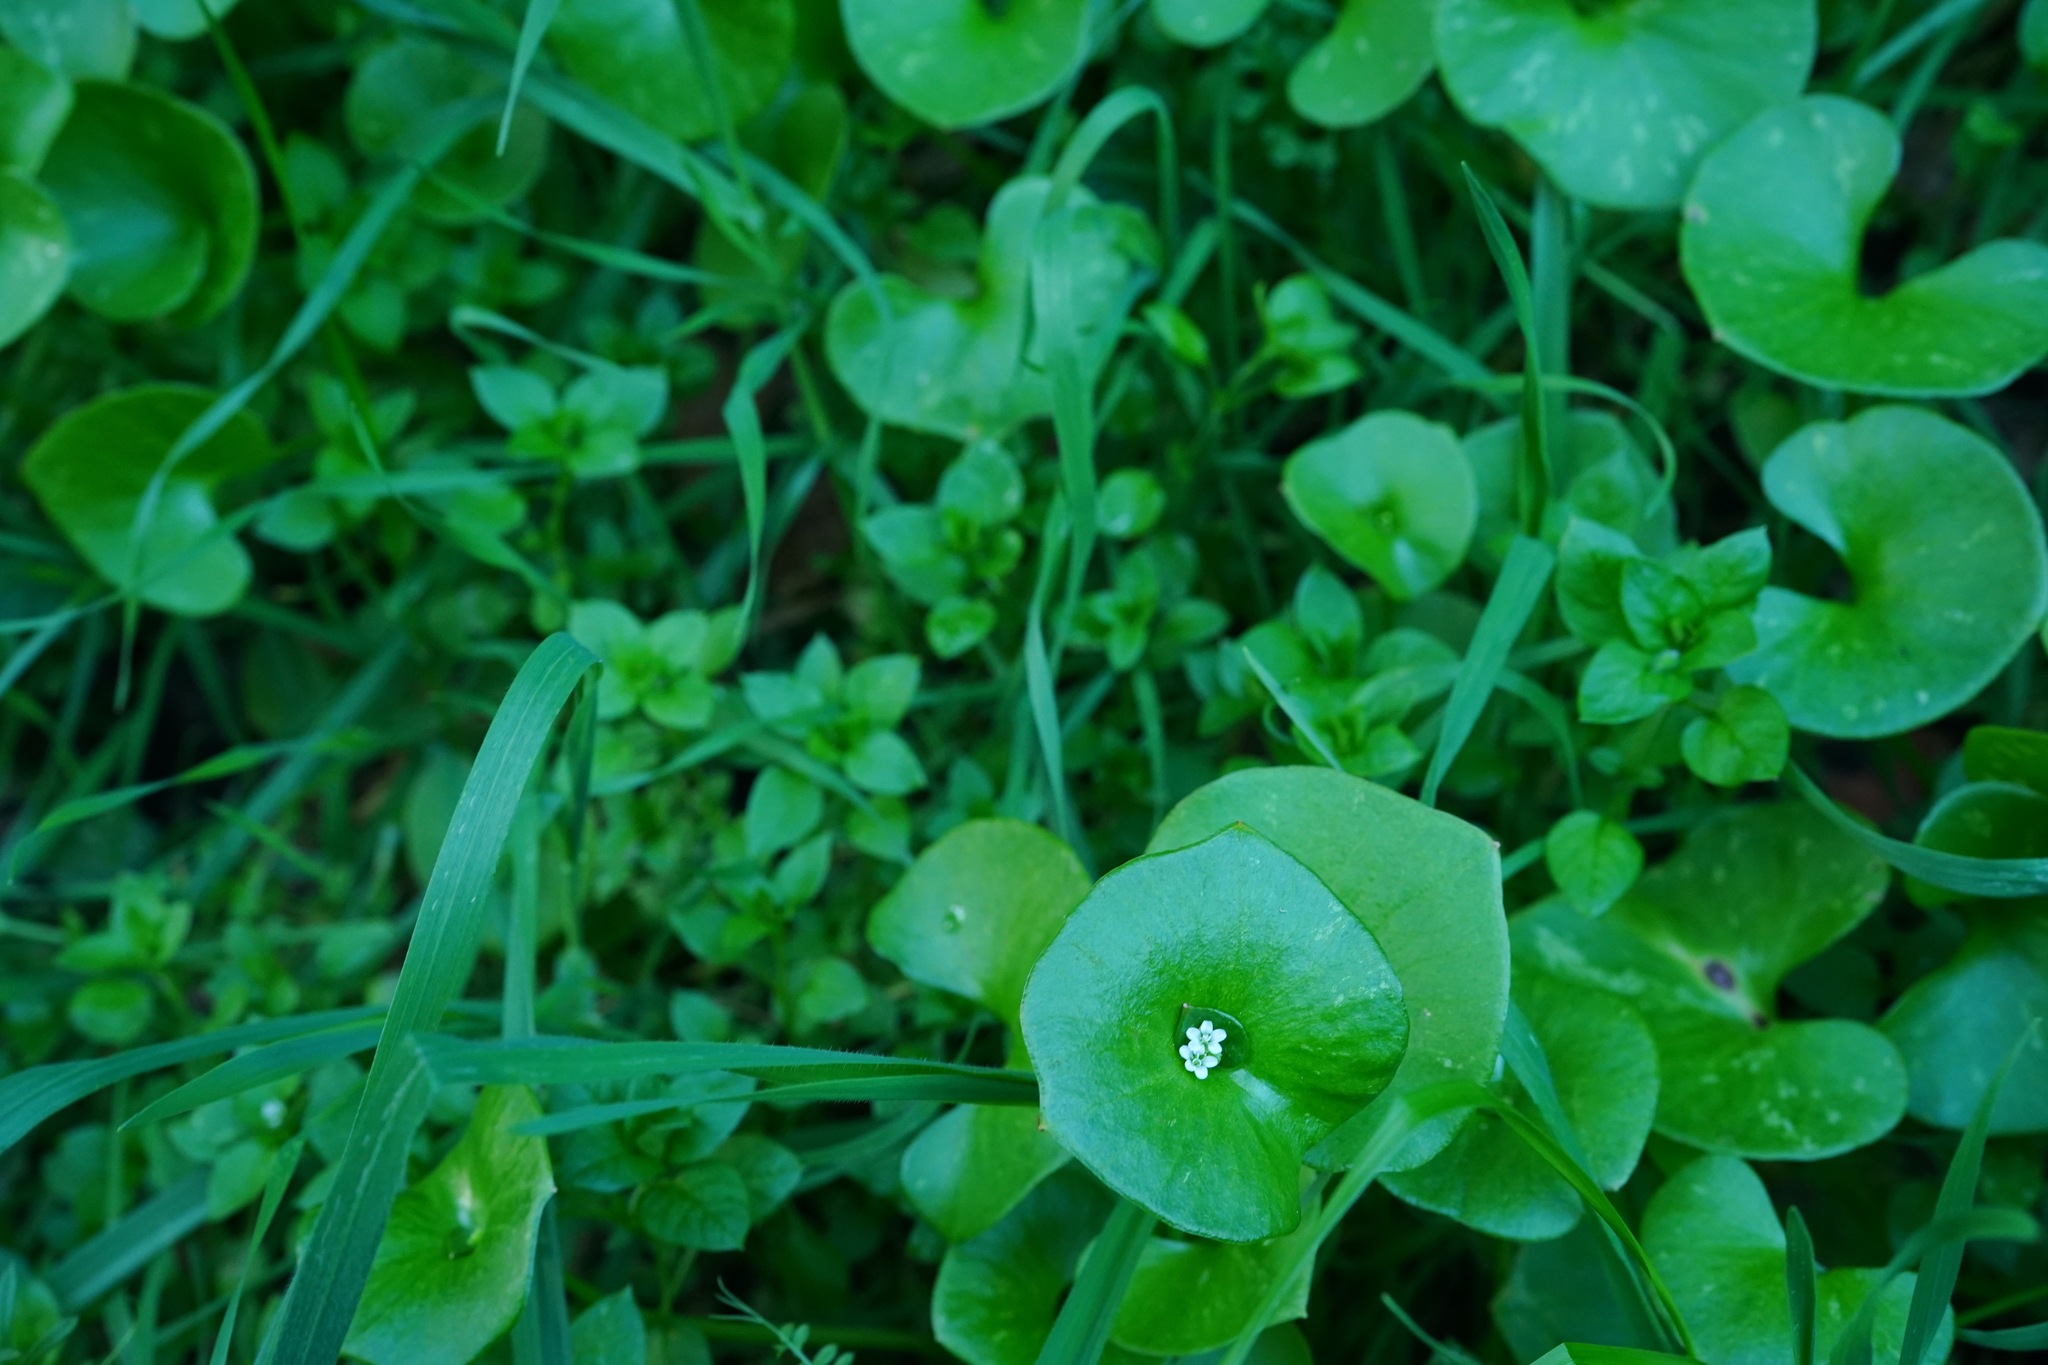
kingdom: Plantae
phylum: Tracheophyta
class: Magnoliopsida
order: Caryophyllales
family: Montiaceae
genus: Claytonia
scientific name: Claytonia perfoliata
